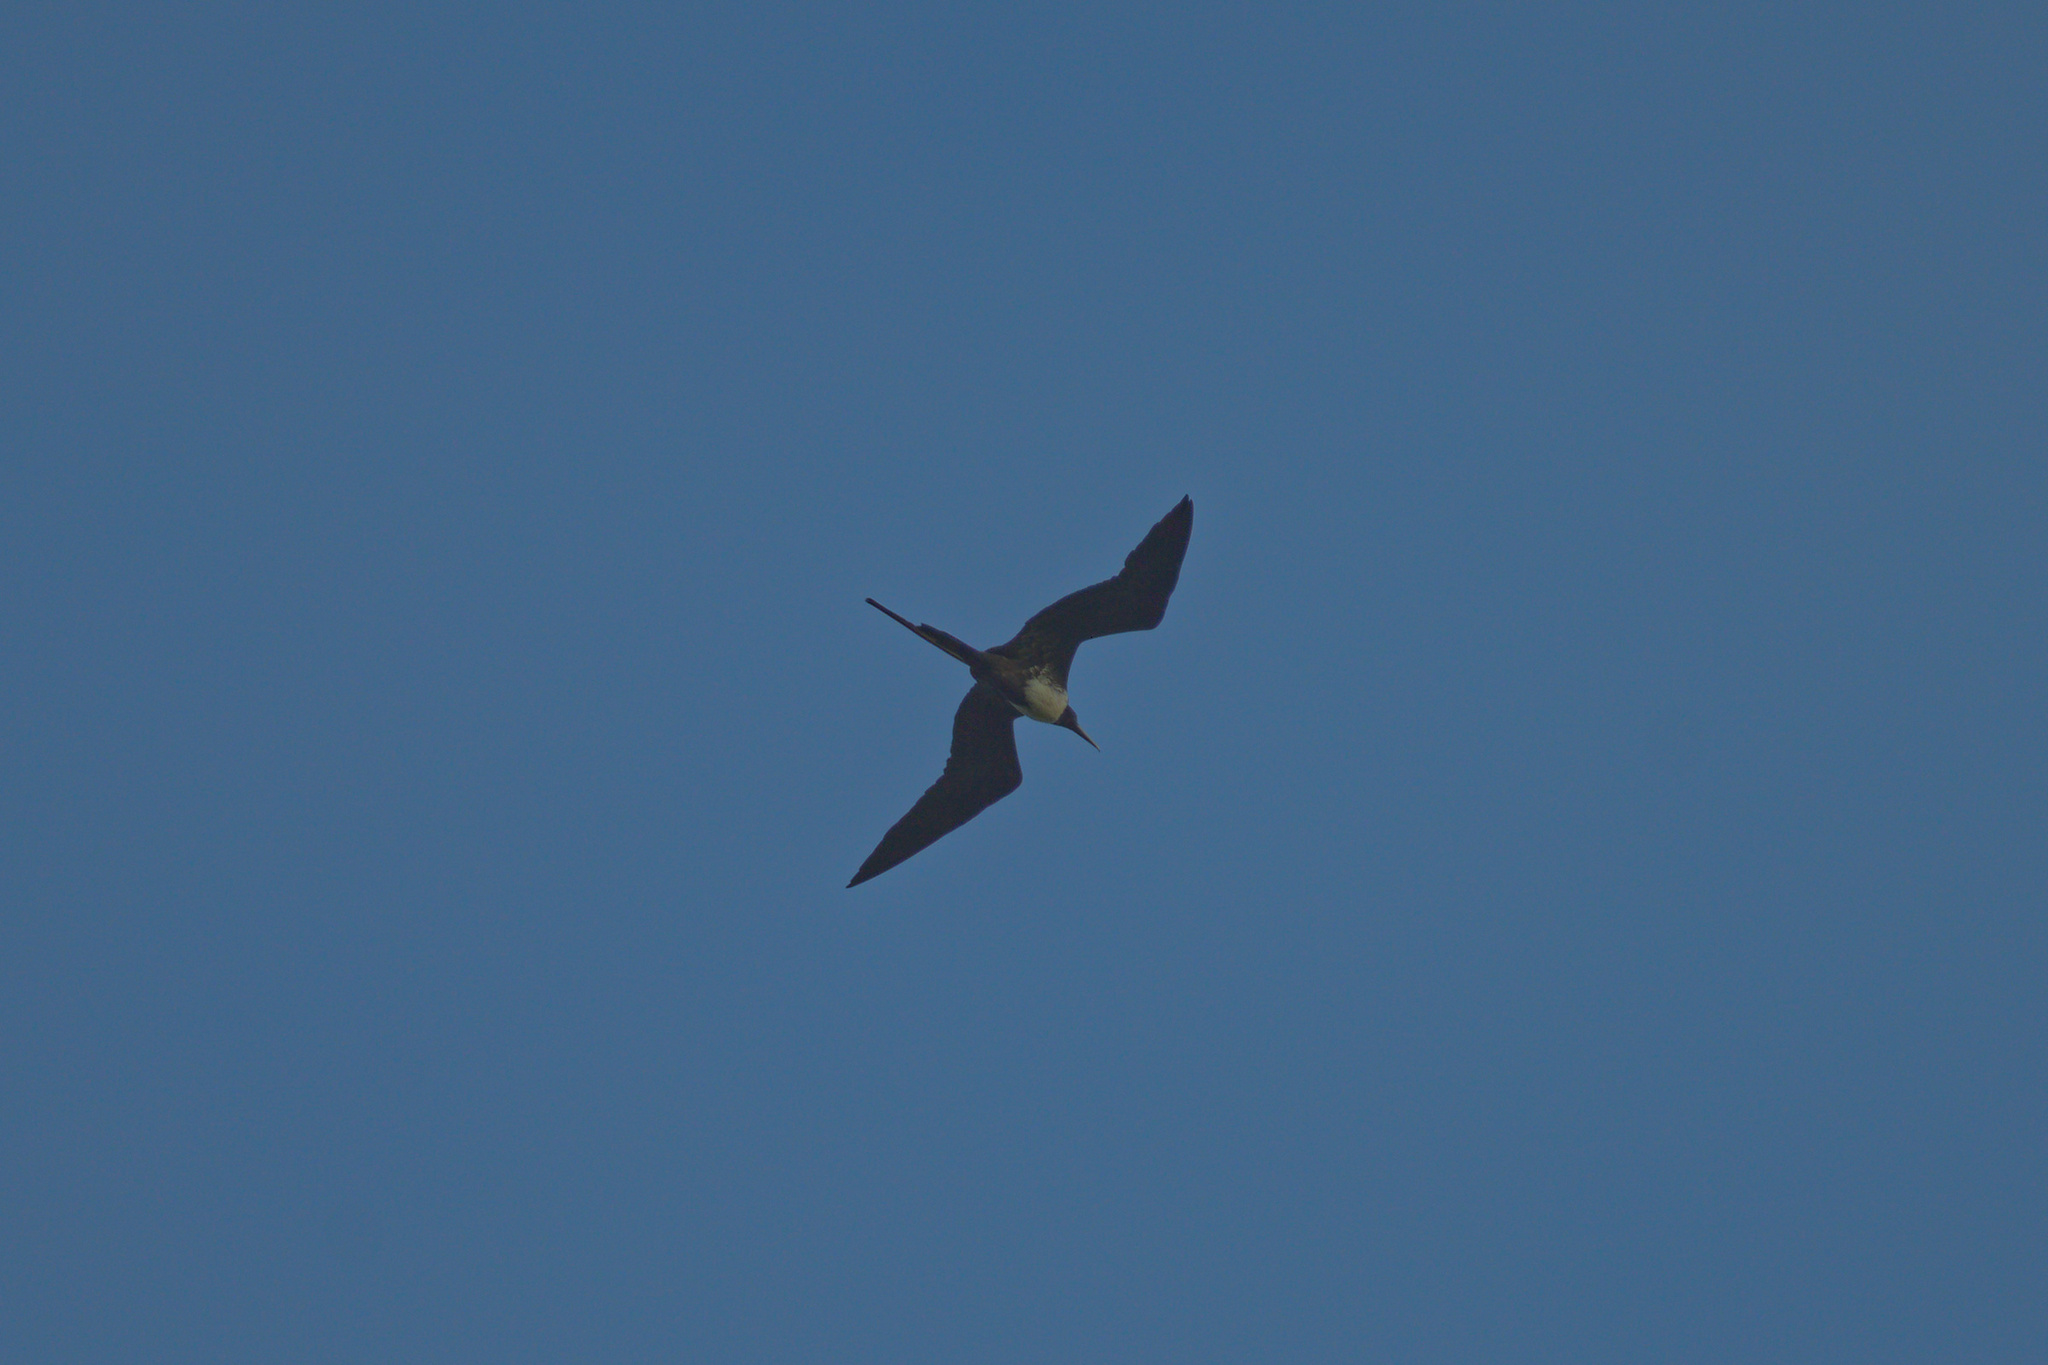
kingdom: Animalia
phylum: Chordata
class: Aves
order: Suliformes
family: Fregatidae
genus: Fregata
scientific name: Fregata magnificens
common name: Magnificent frigatebird
